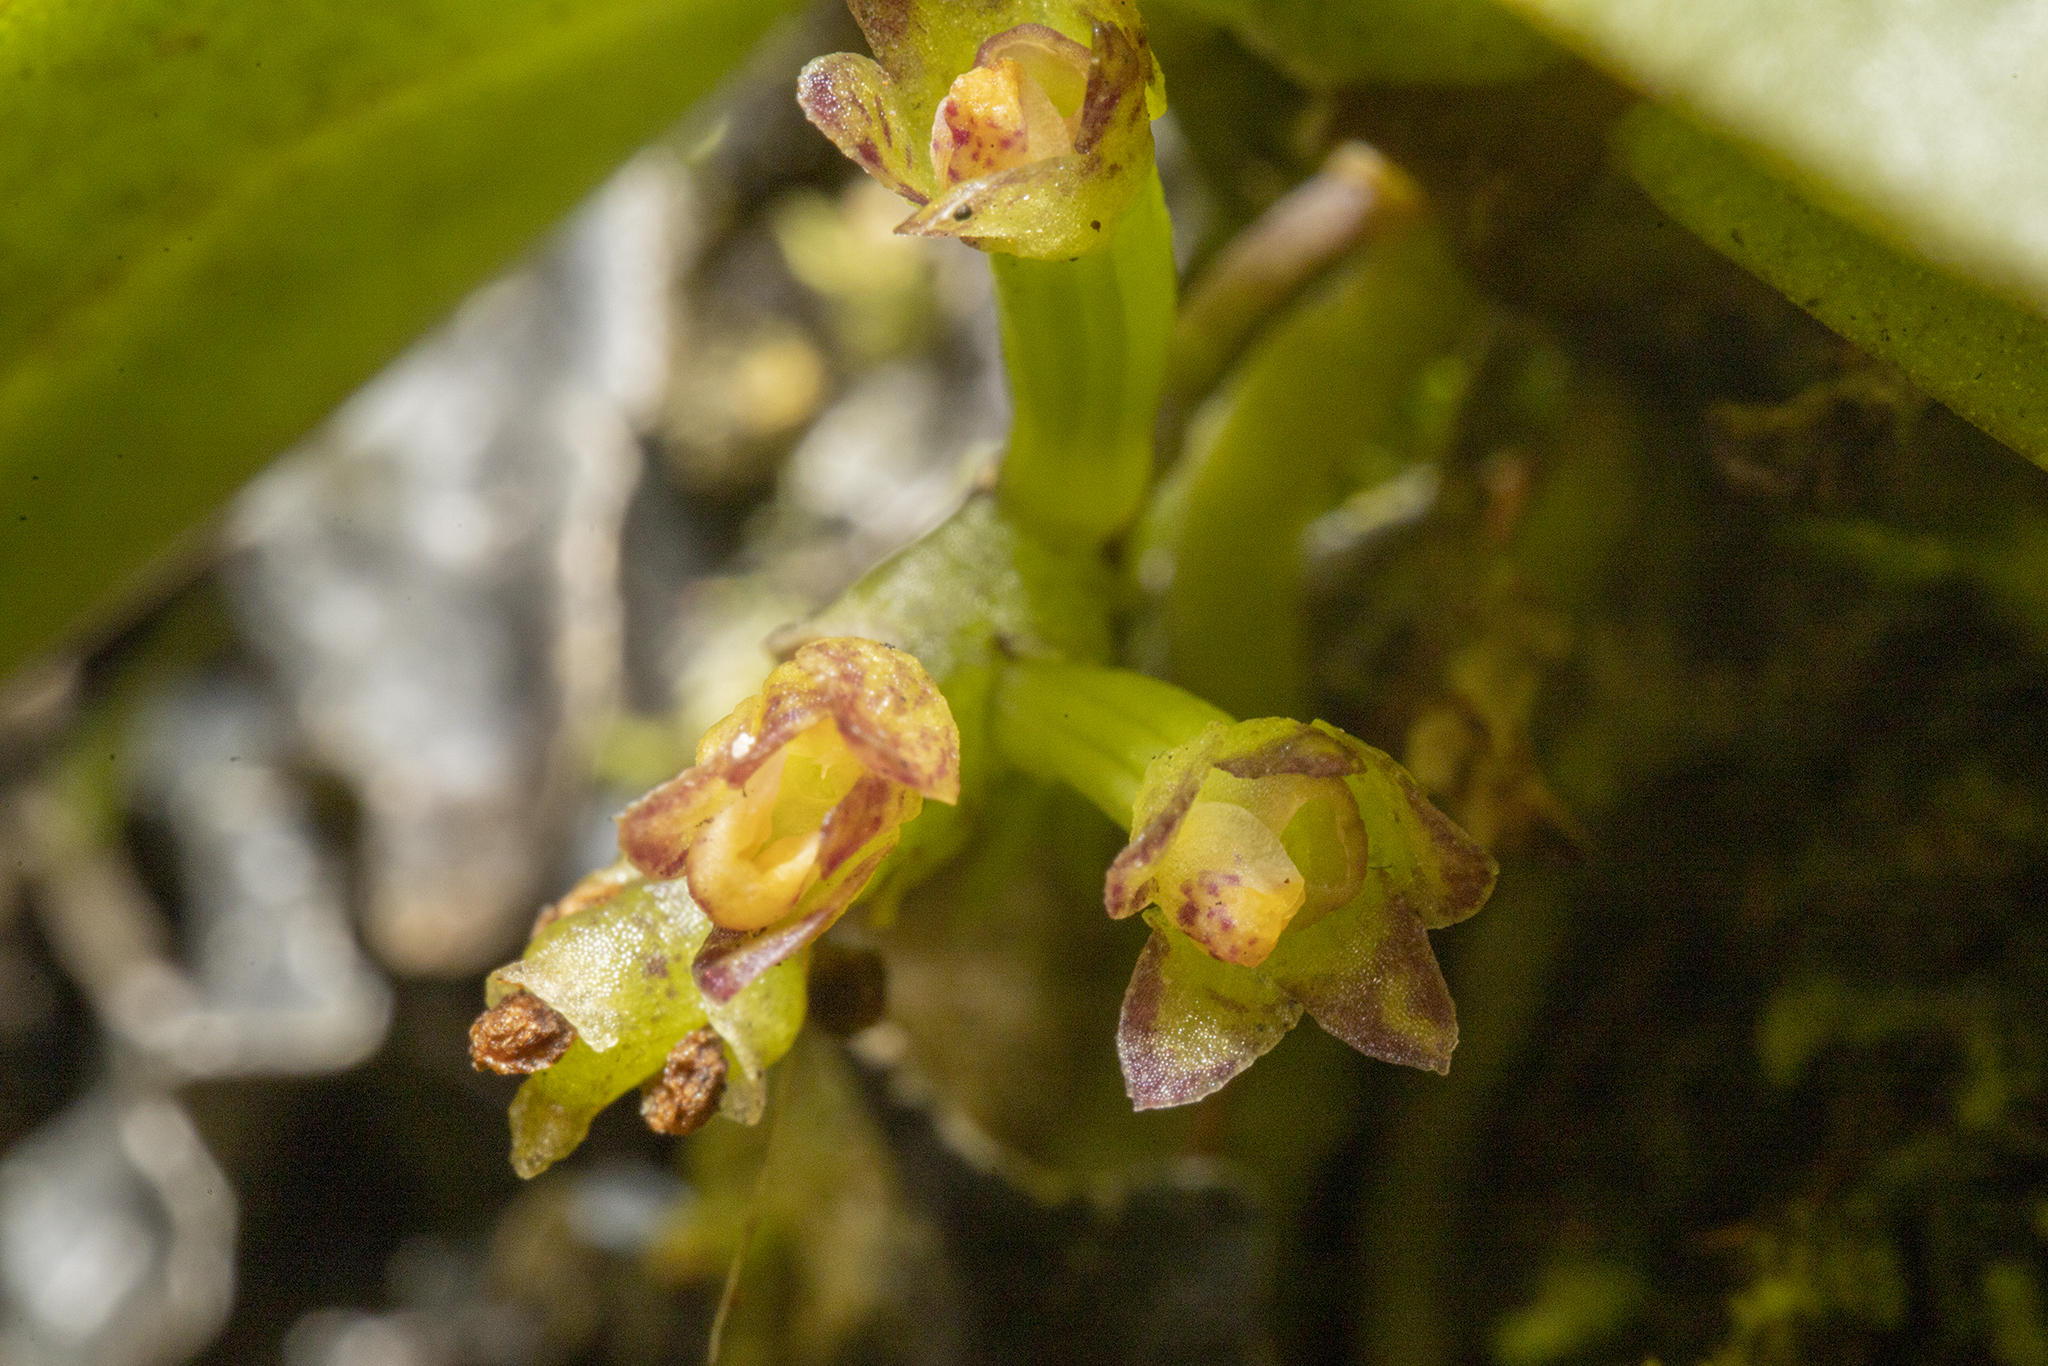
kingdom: Plantae
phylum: Tracheophyta
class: Liliopsida
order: Asparagales
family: Orchidaceae
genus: Drymoanthus
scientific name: Drymoanthus adversus
